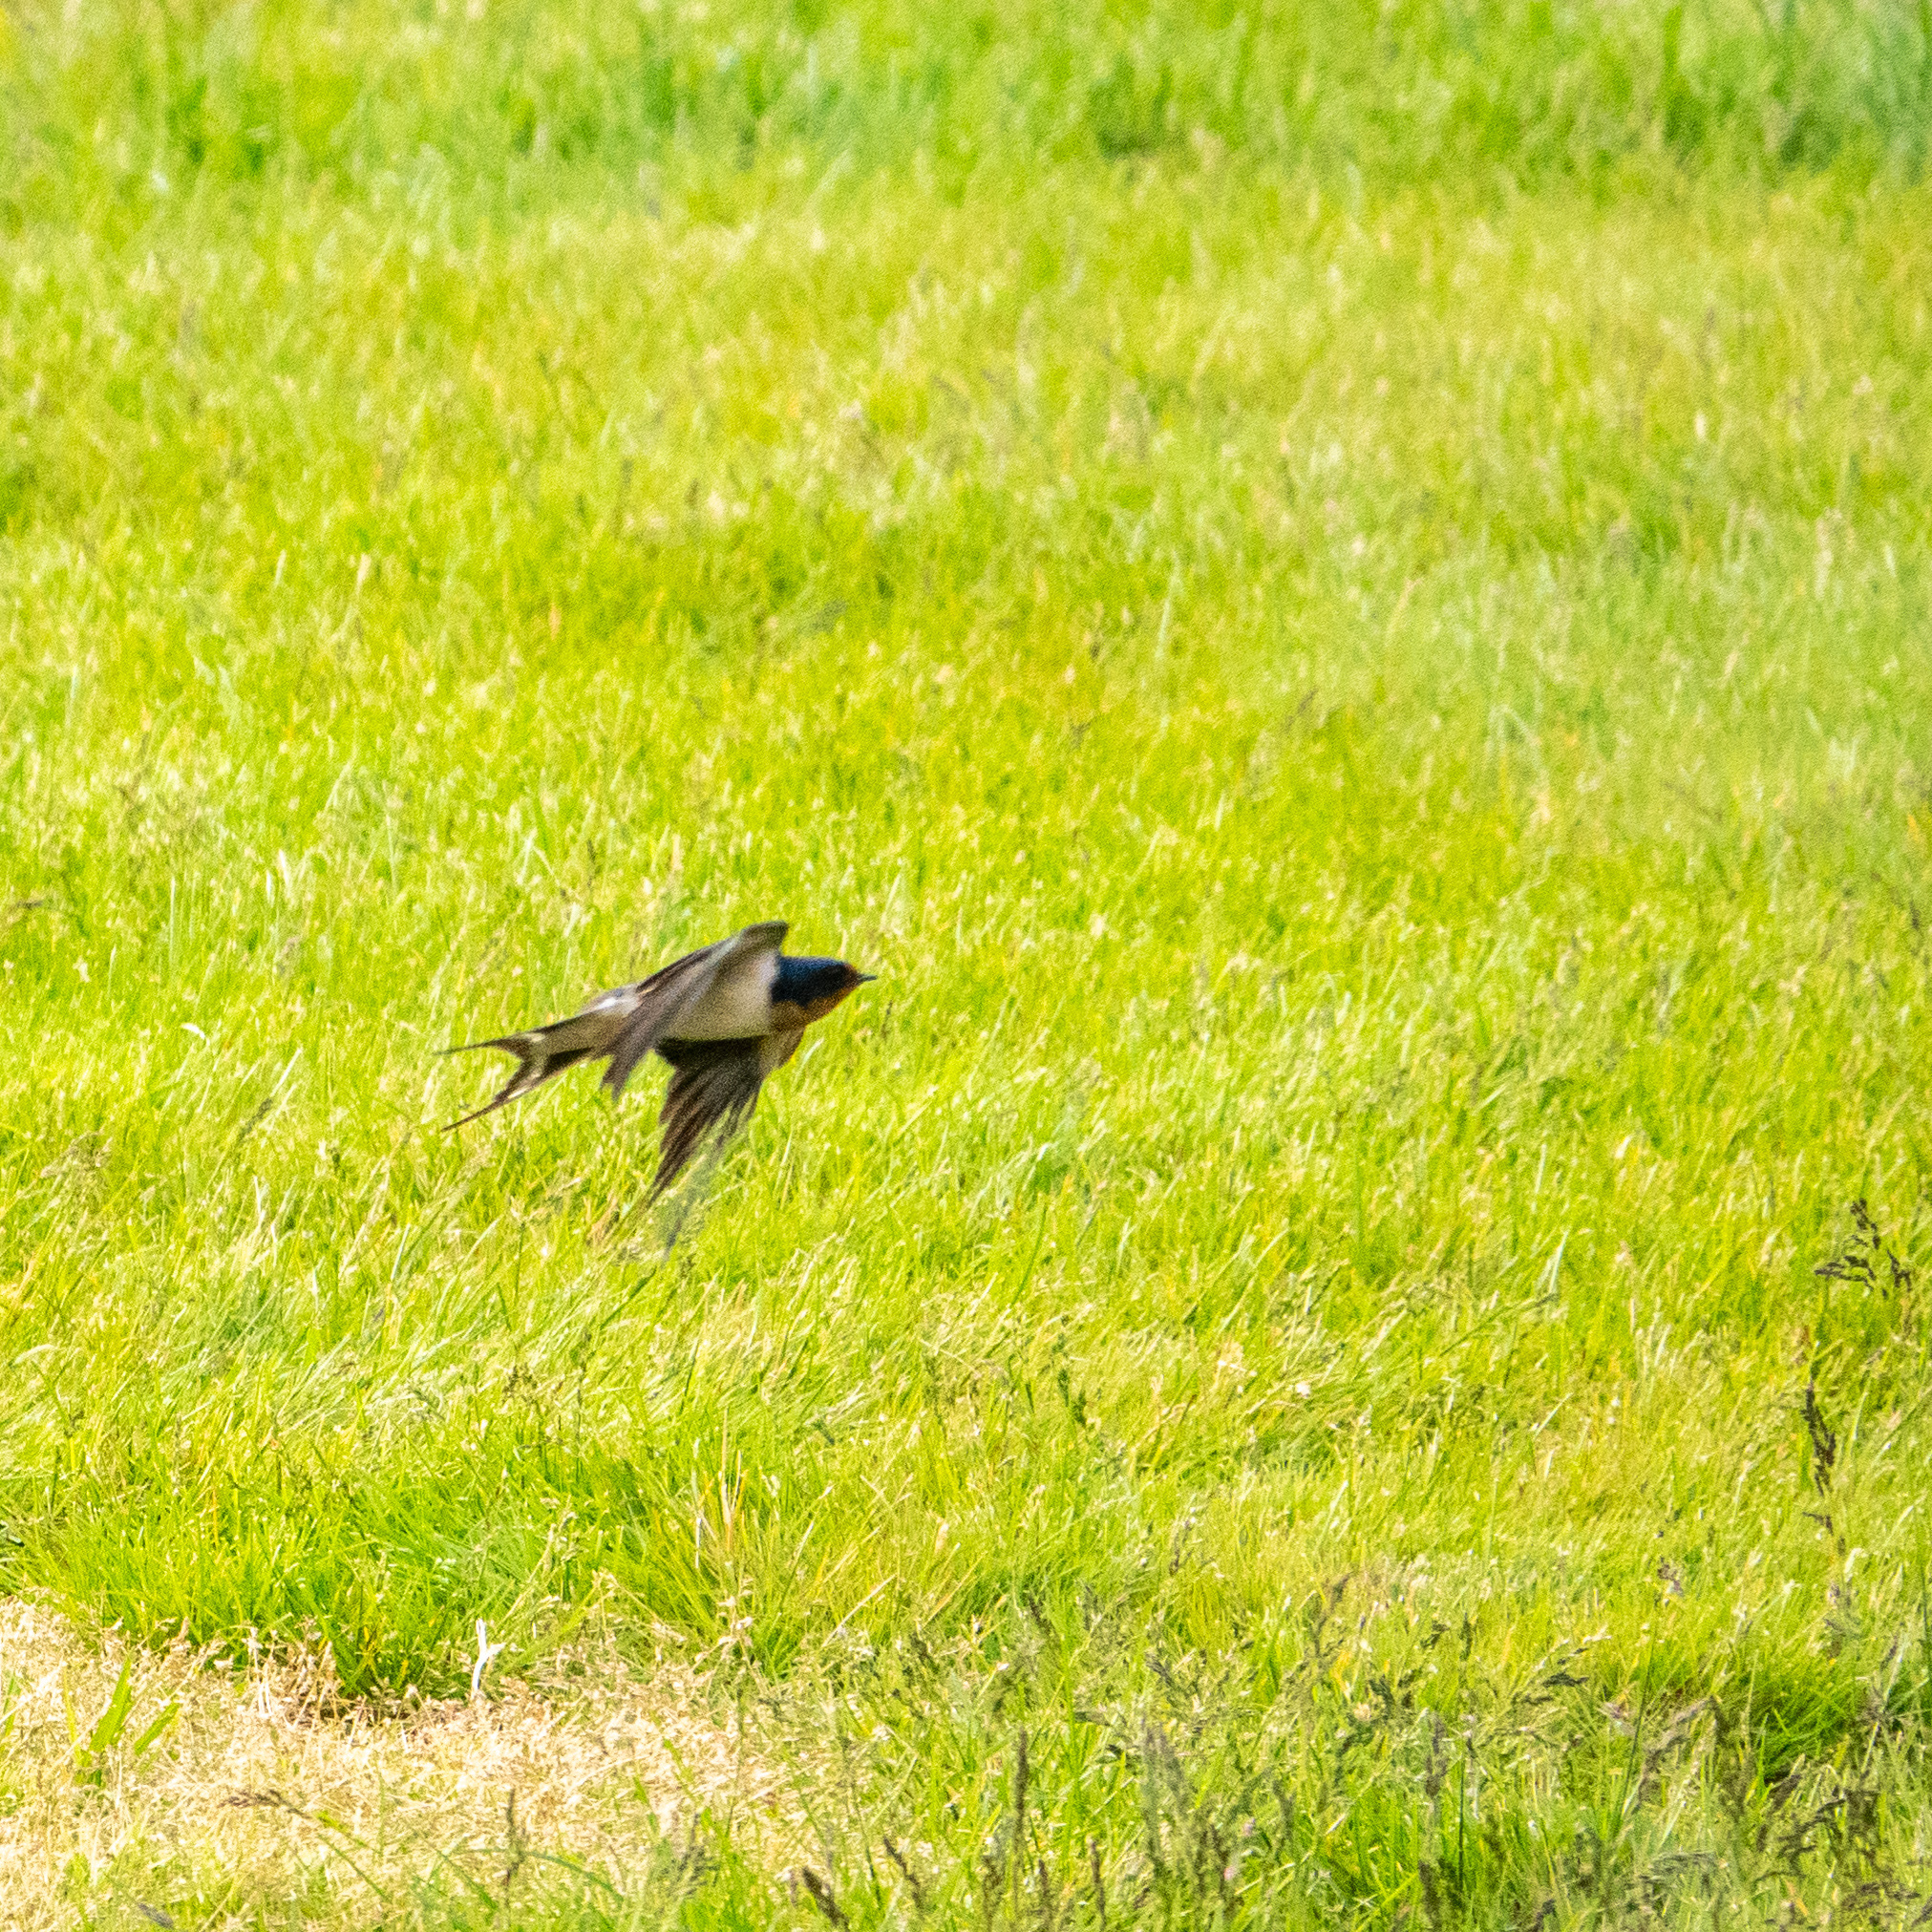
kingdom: Animalia
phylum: Chordata
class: Aves
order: Passeriformes
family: Hirundinidae
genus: Hirundo
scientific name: Hirundo rustica
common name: Barn swallow
